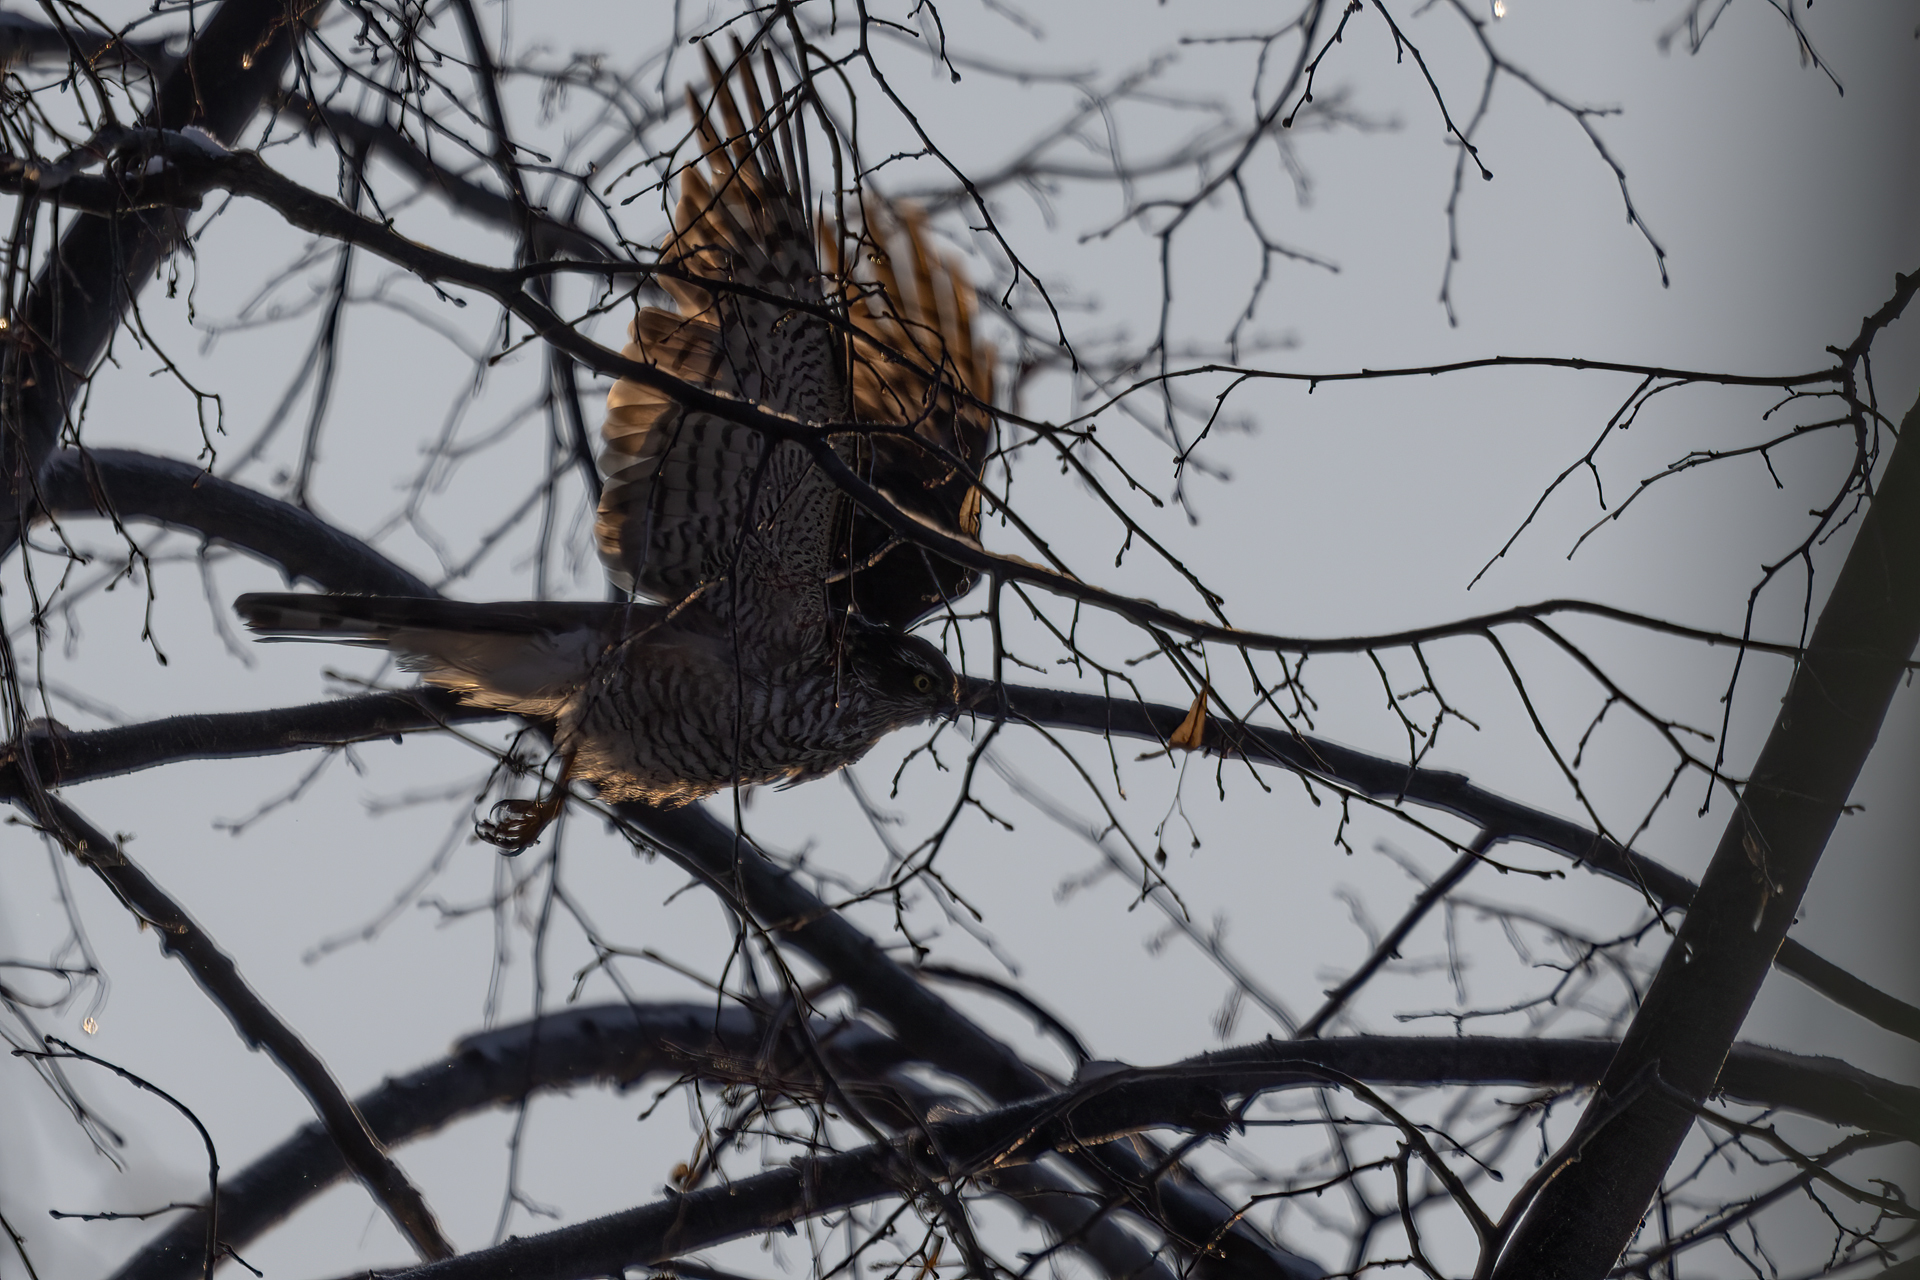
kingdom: Animalia
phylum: Chordata
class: Aves
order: Accipitriformes
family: Accipitridae
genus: Accipiter
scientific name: Accipiter nisus
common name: Eurasian sparrowhawk
